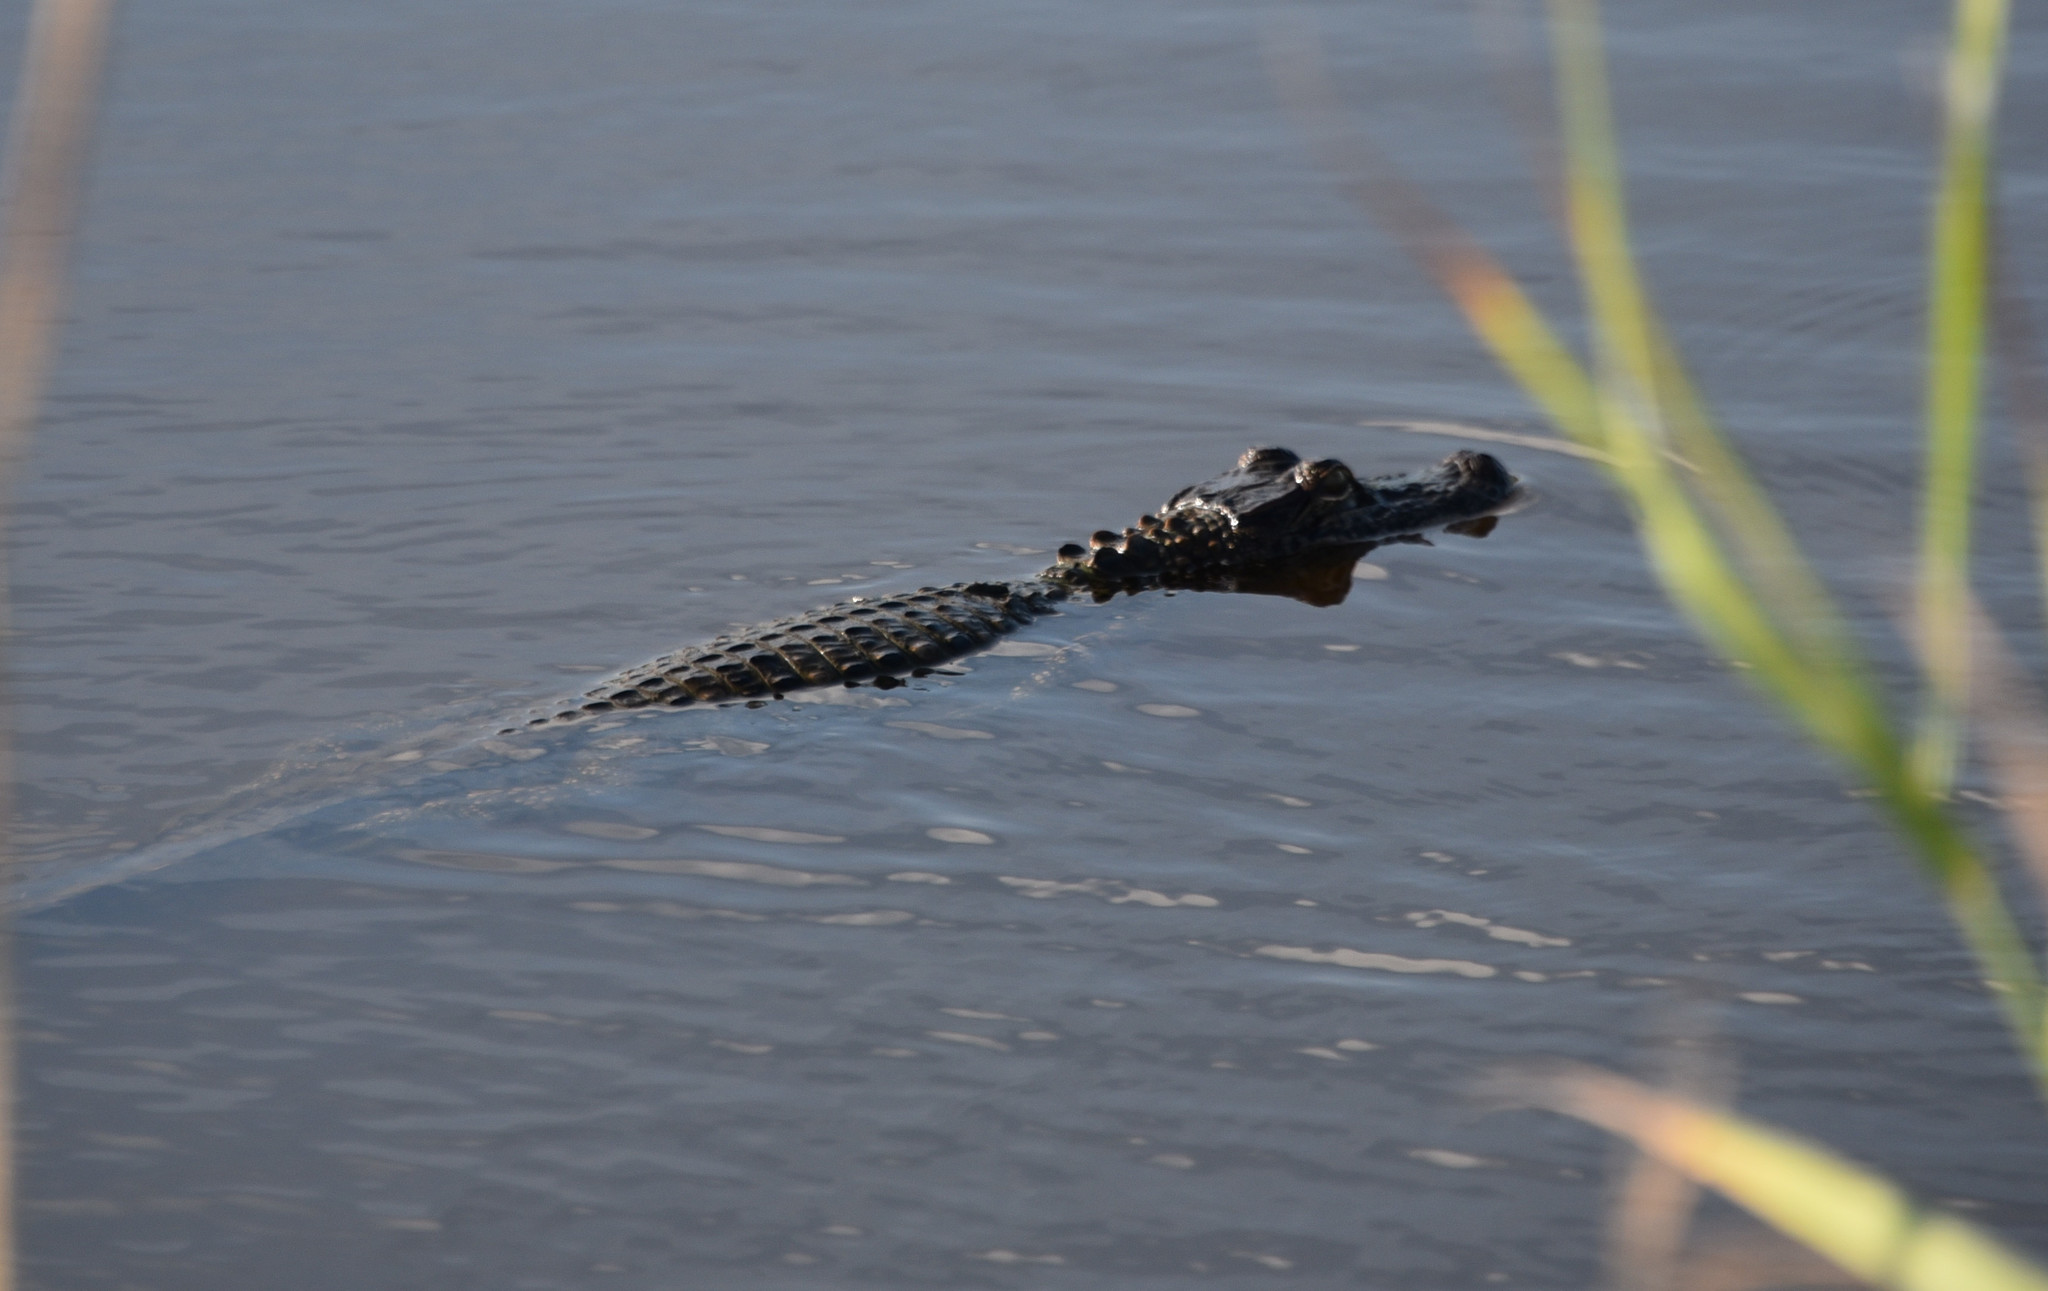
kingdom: Animalia
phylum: Chordata
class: Crocodylia
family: Alligatoridae
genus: Alligator
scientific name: Alligator mississippiensis
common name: American alligator
